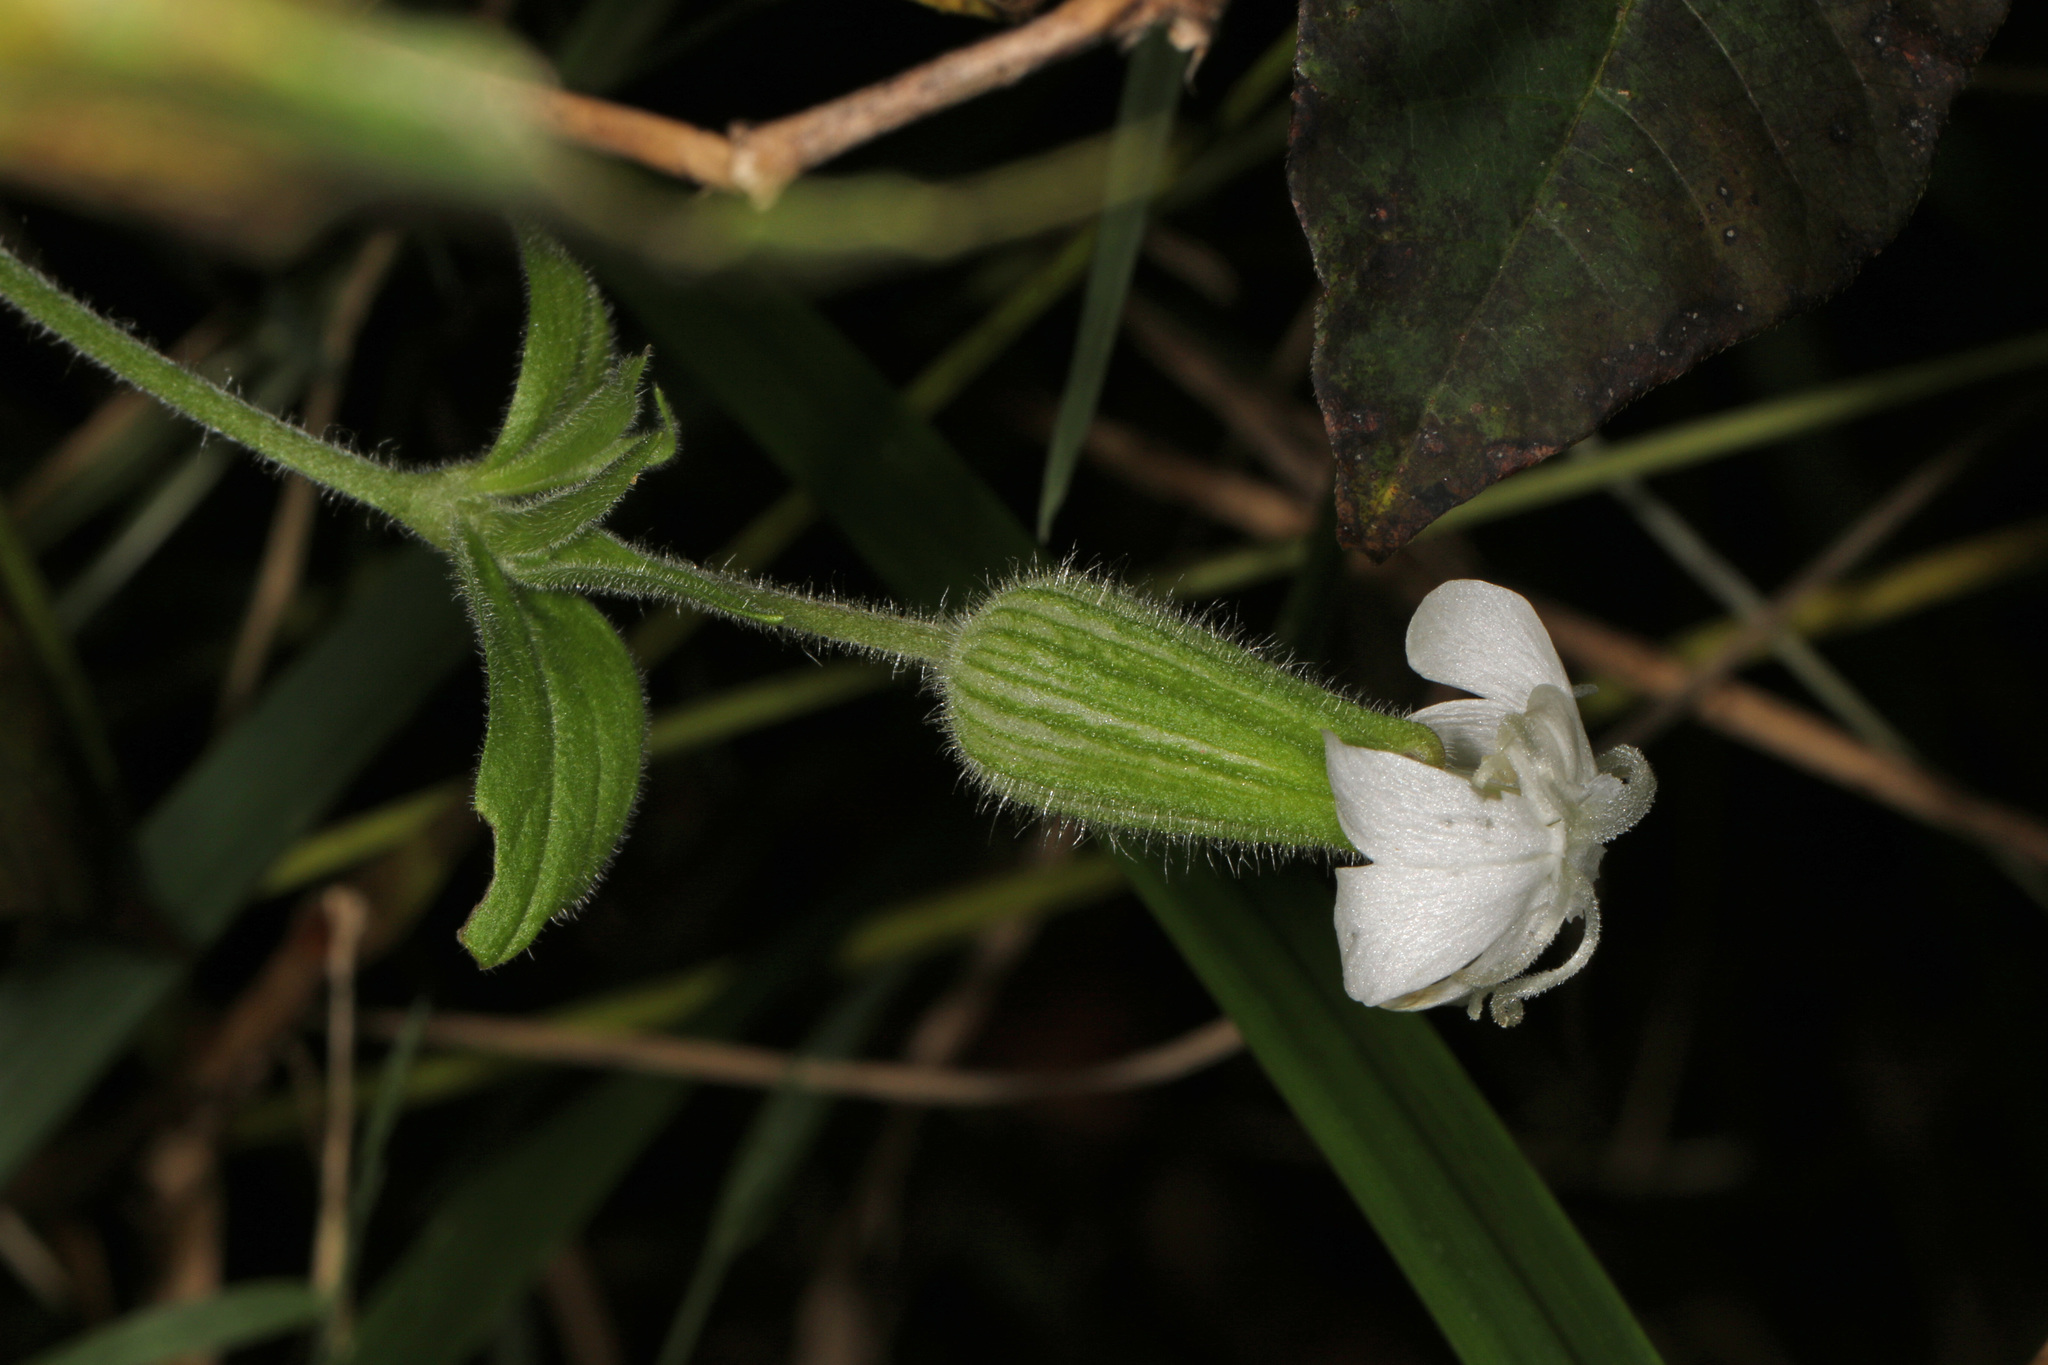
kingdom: Plantae
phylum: Tracheophyta
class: Magnoliopsida
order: Caryophyllales
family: Caryophyllaceae
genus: Silene
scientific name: Silene latifolia
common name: White campion
